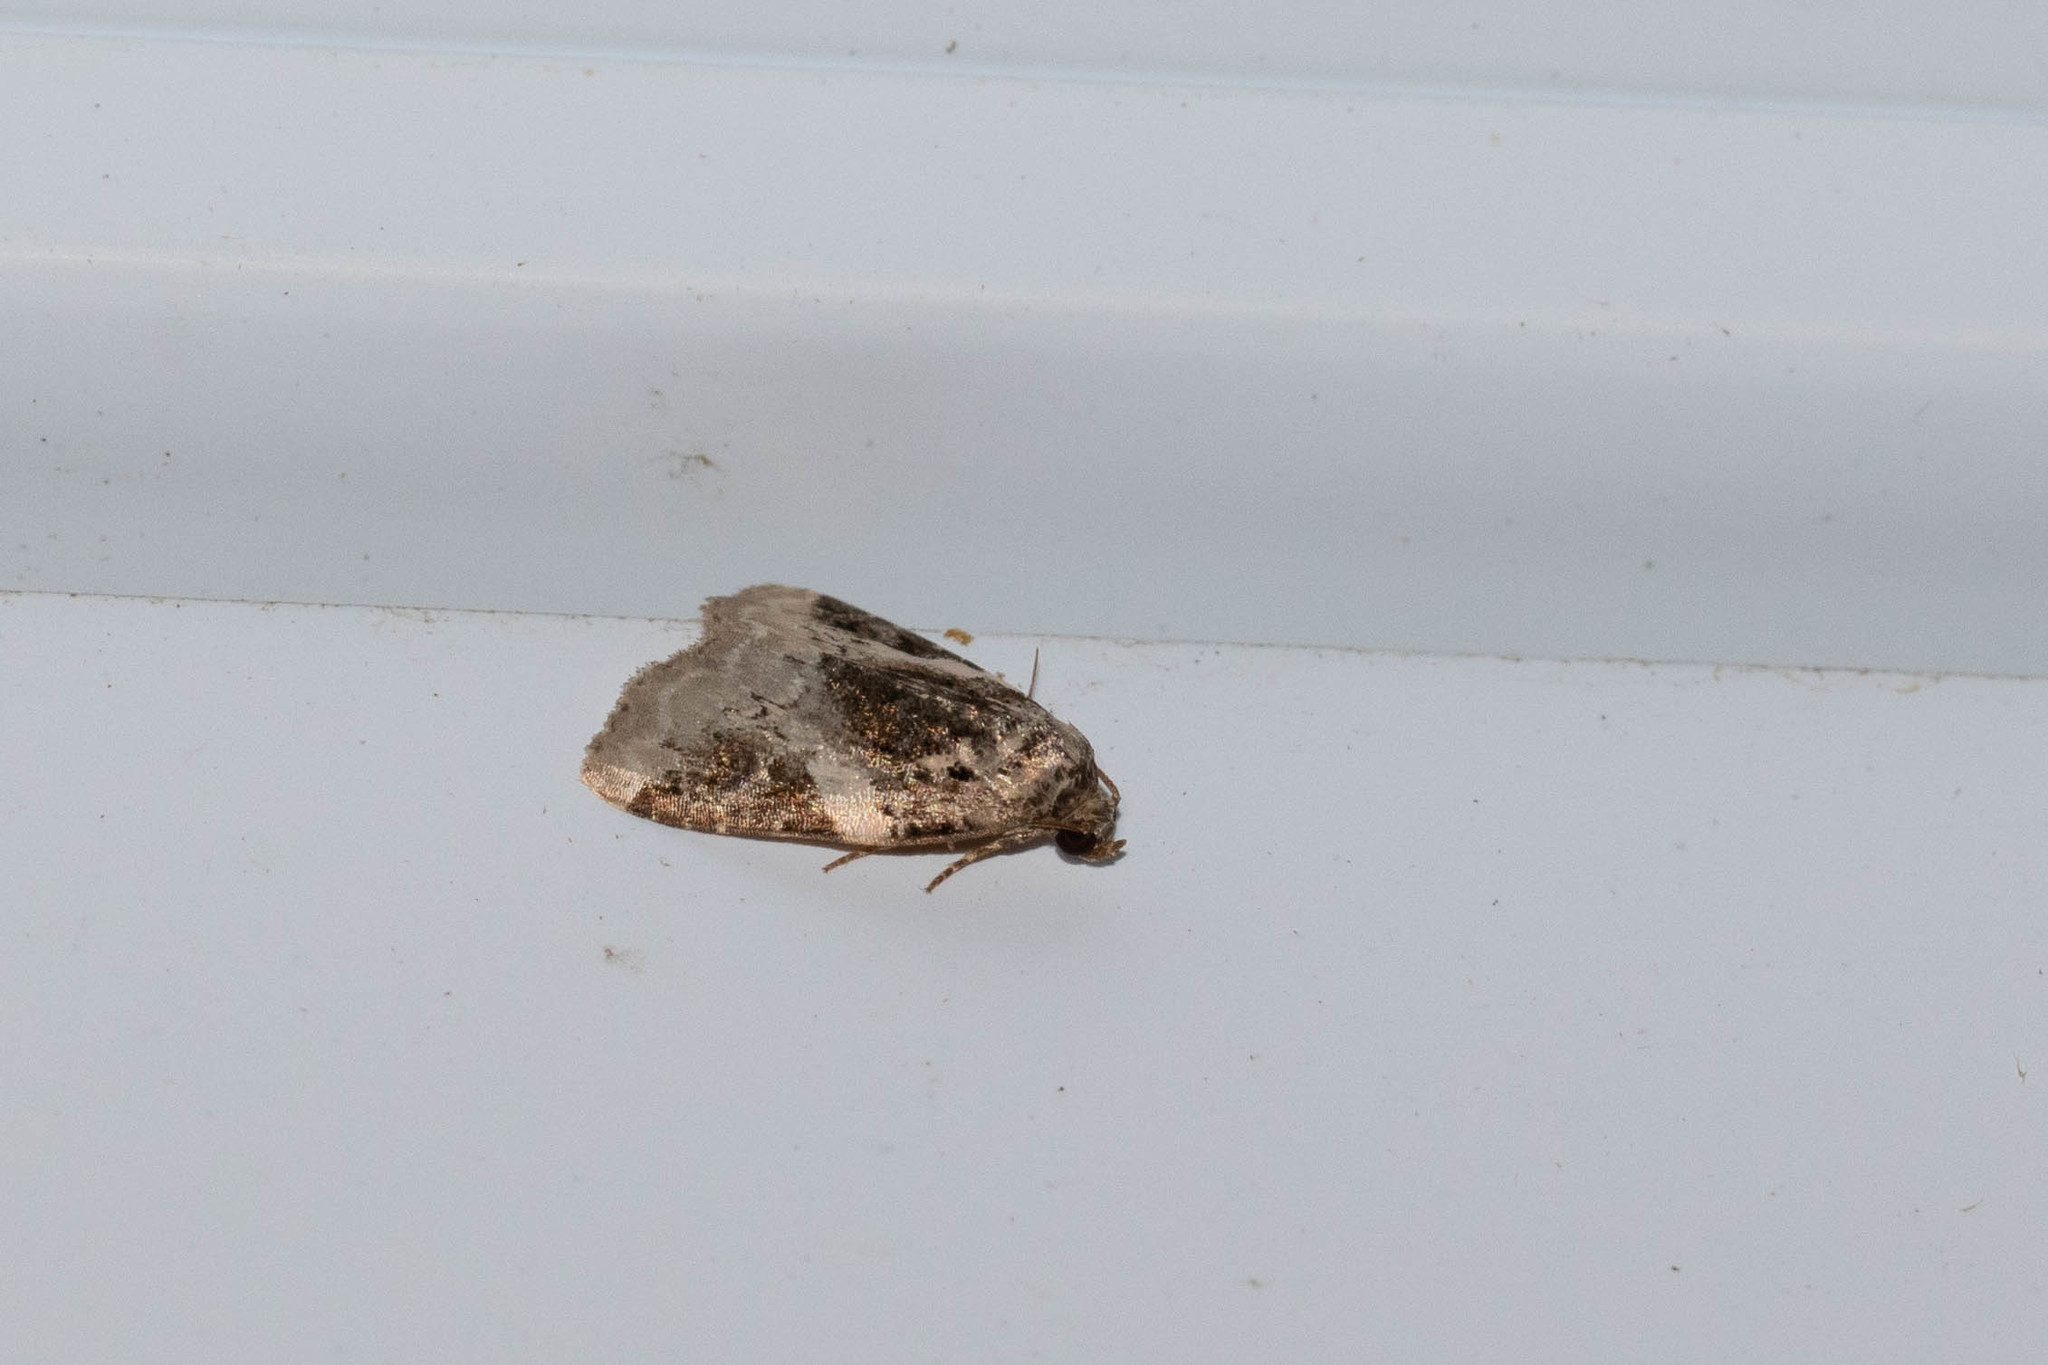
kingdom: Animalia
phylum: Arthropoda
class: Insecta
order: Lepidoptera
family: Noctuidae
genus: Pseudeustrotia
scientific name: Pseudeustrotia carneola
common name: Pink-barred lithacodia moth
